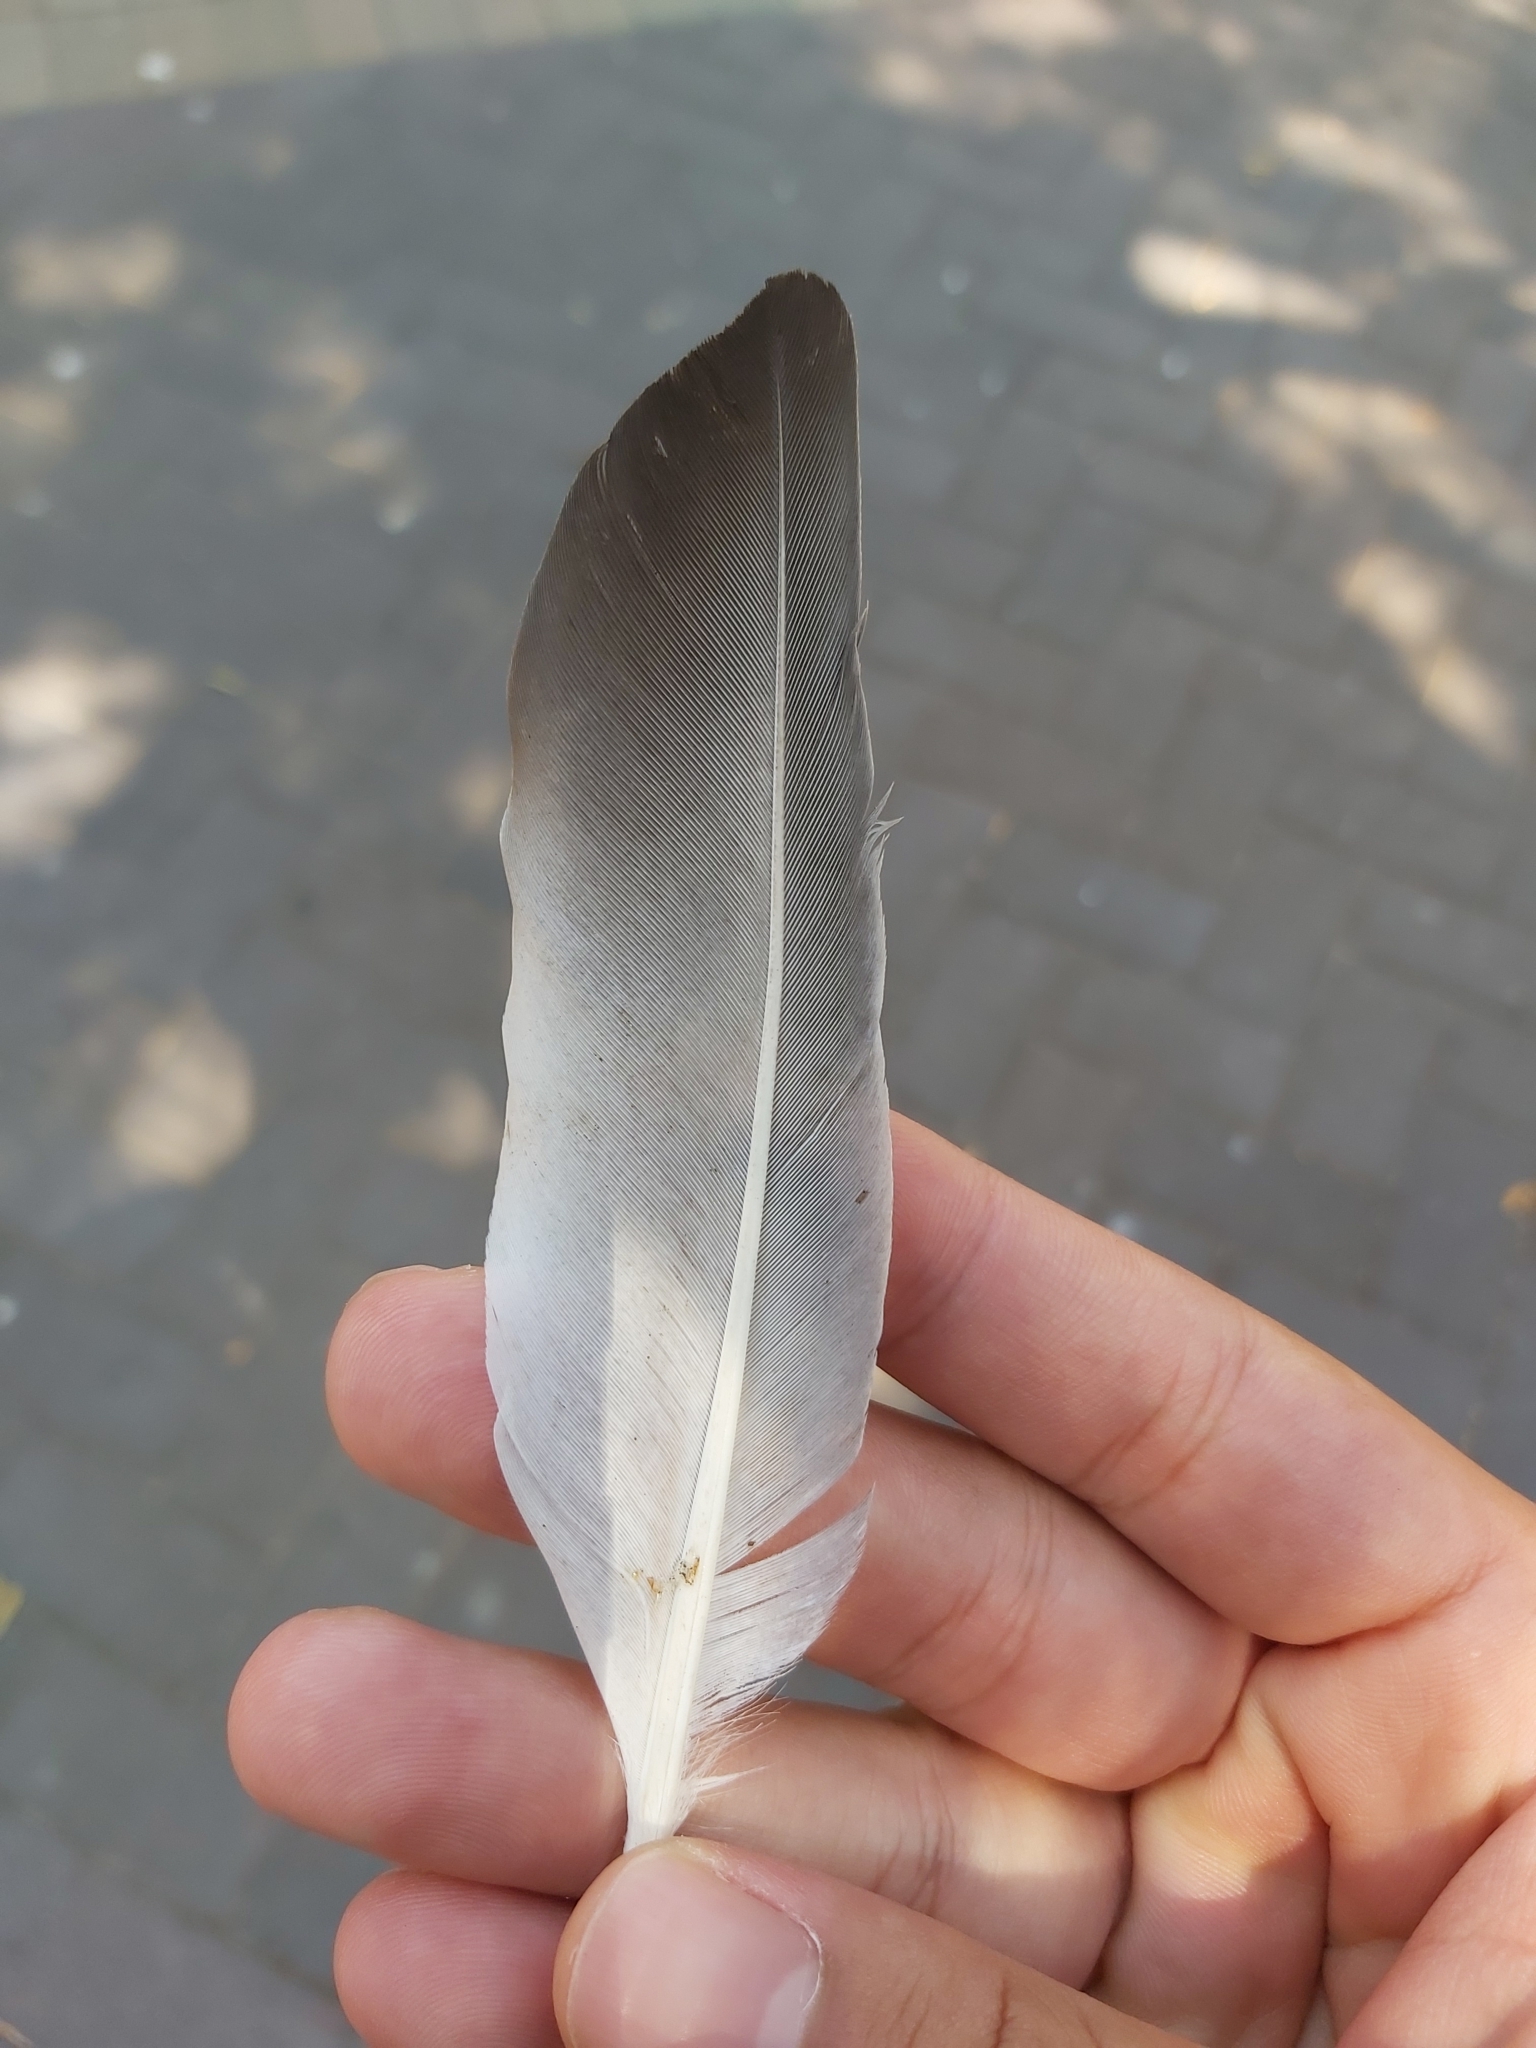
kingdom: Animalia
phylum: Chordata
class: Aves
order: Columbiformes
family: Columbidae
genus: Columba
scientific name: Columba livia
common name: Rock pigeon
